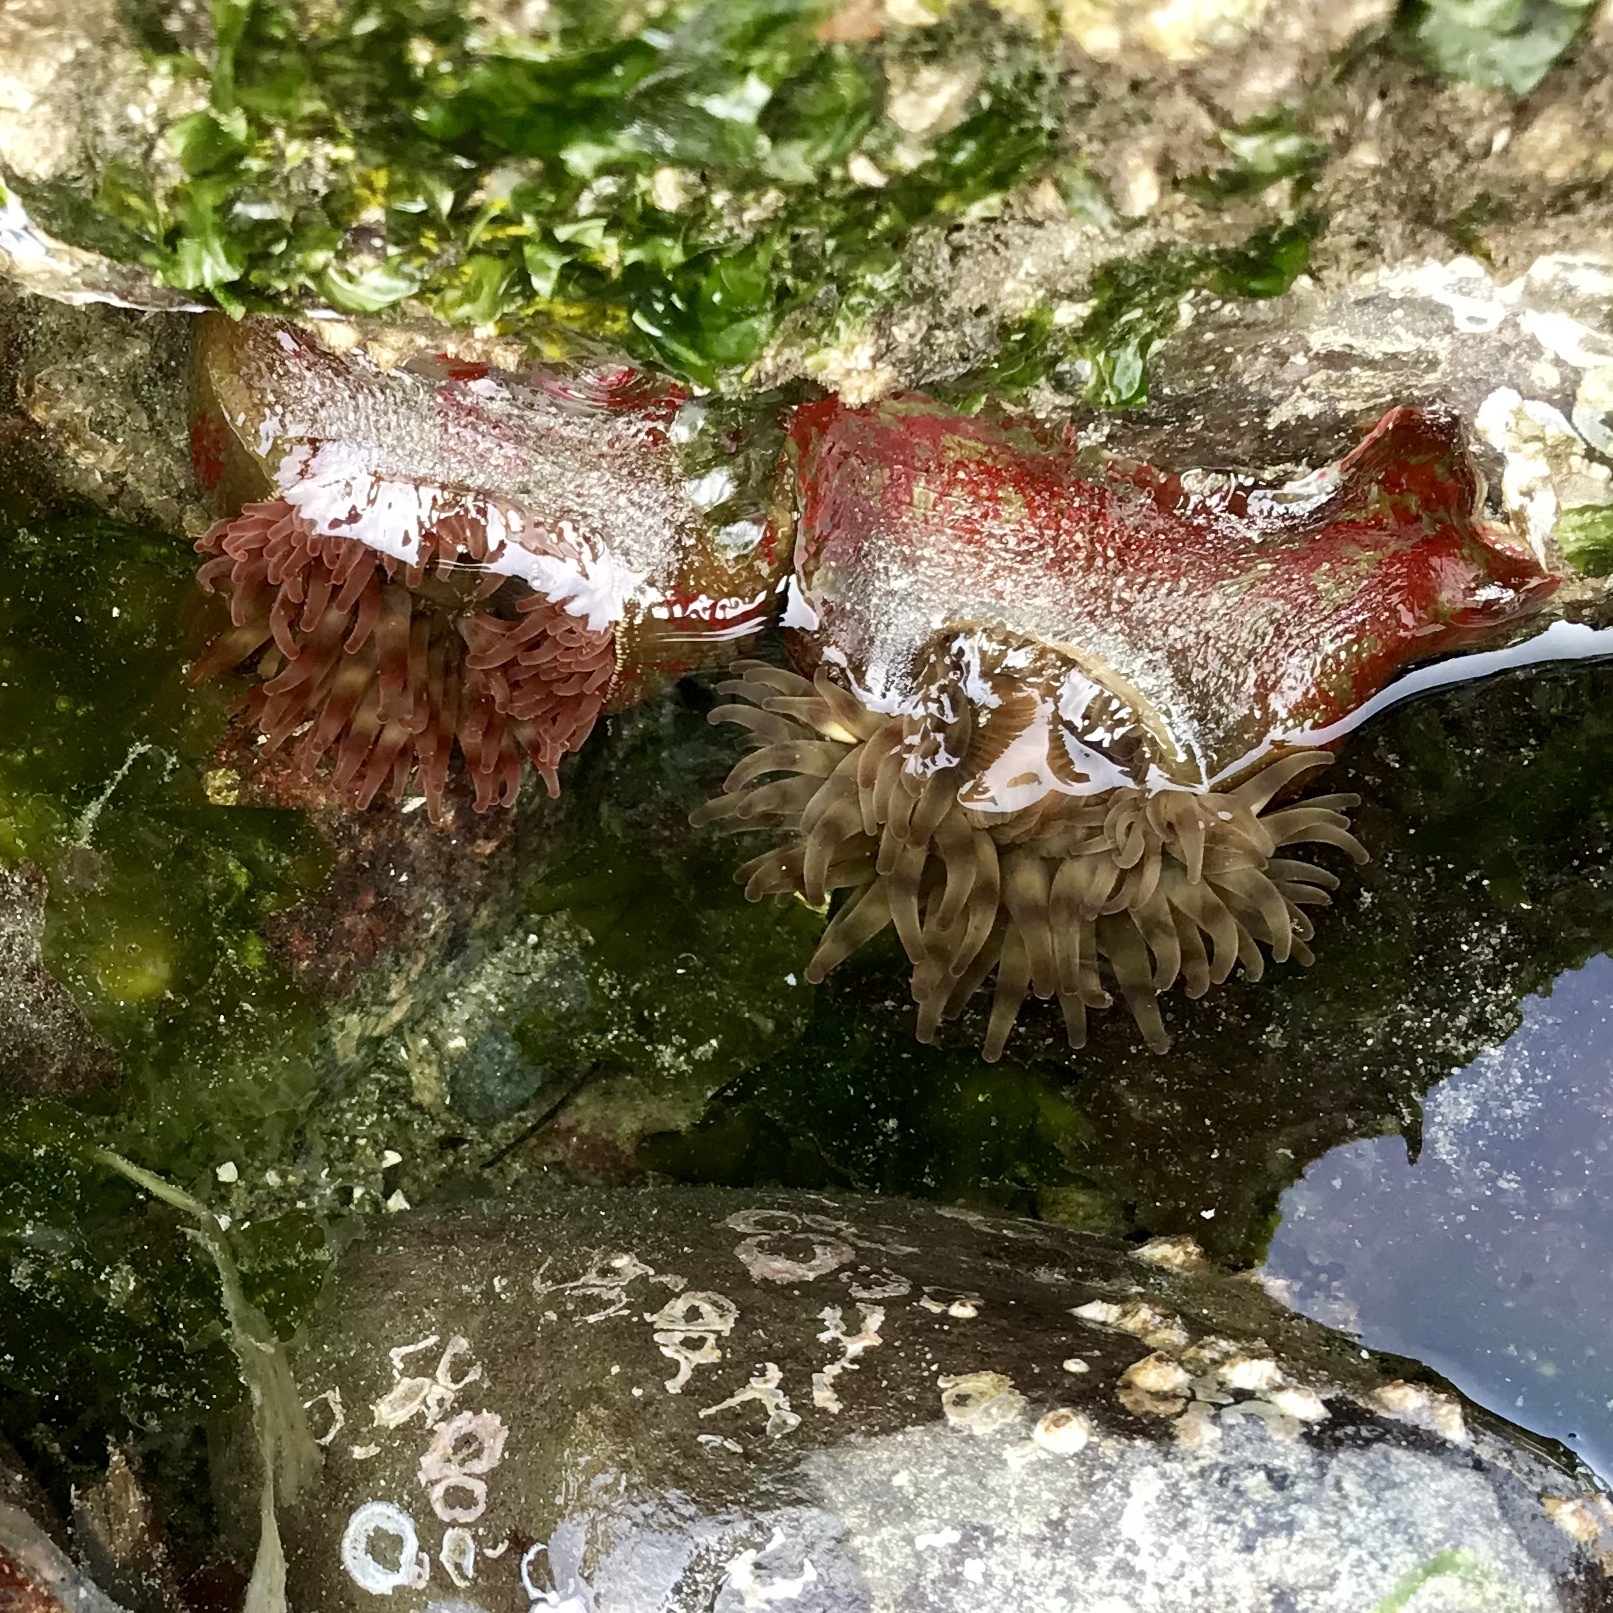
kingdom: Animalia
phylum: Cnidaria
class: Anthozoa
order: Actiniaria
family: Actiniidae
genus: Urticina
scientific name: Urticina grebelnyi
